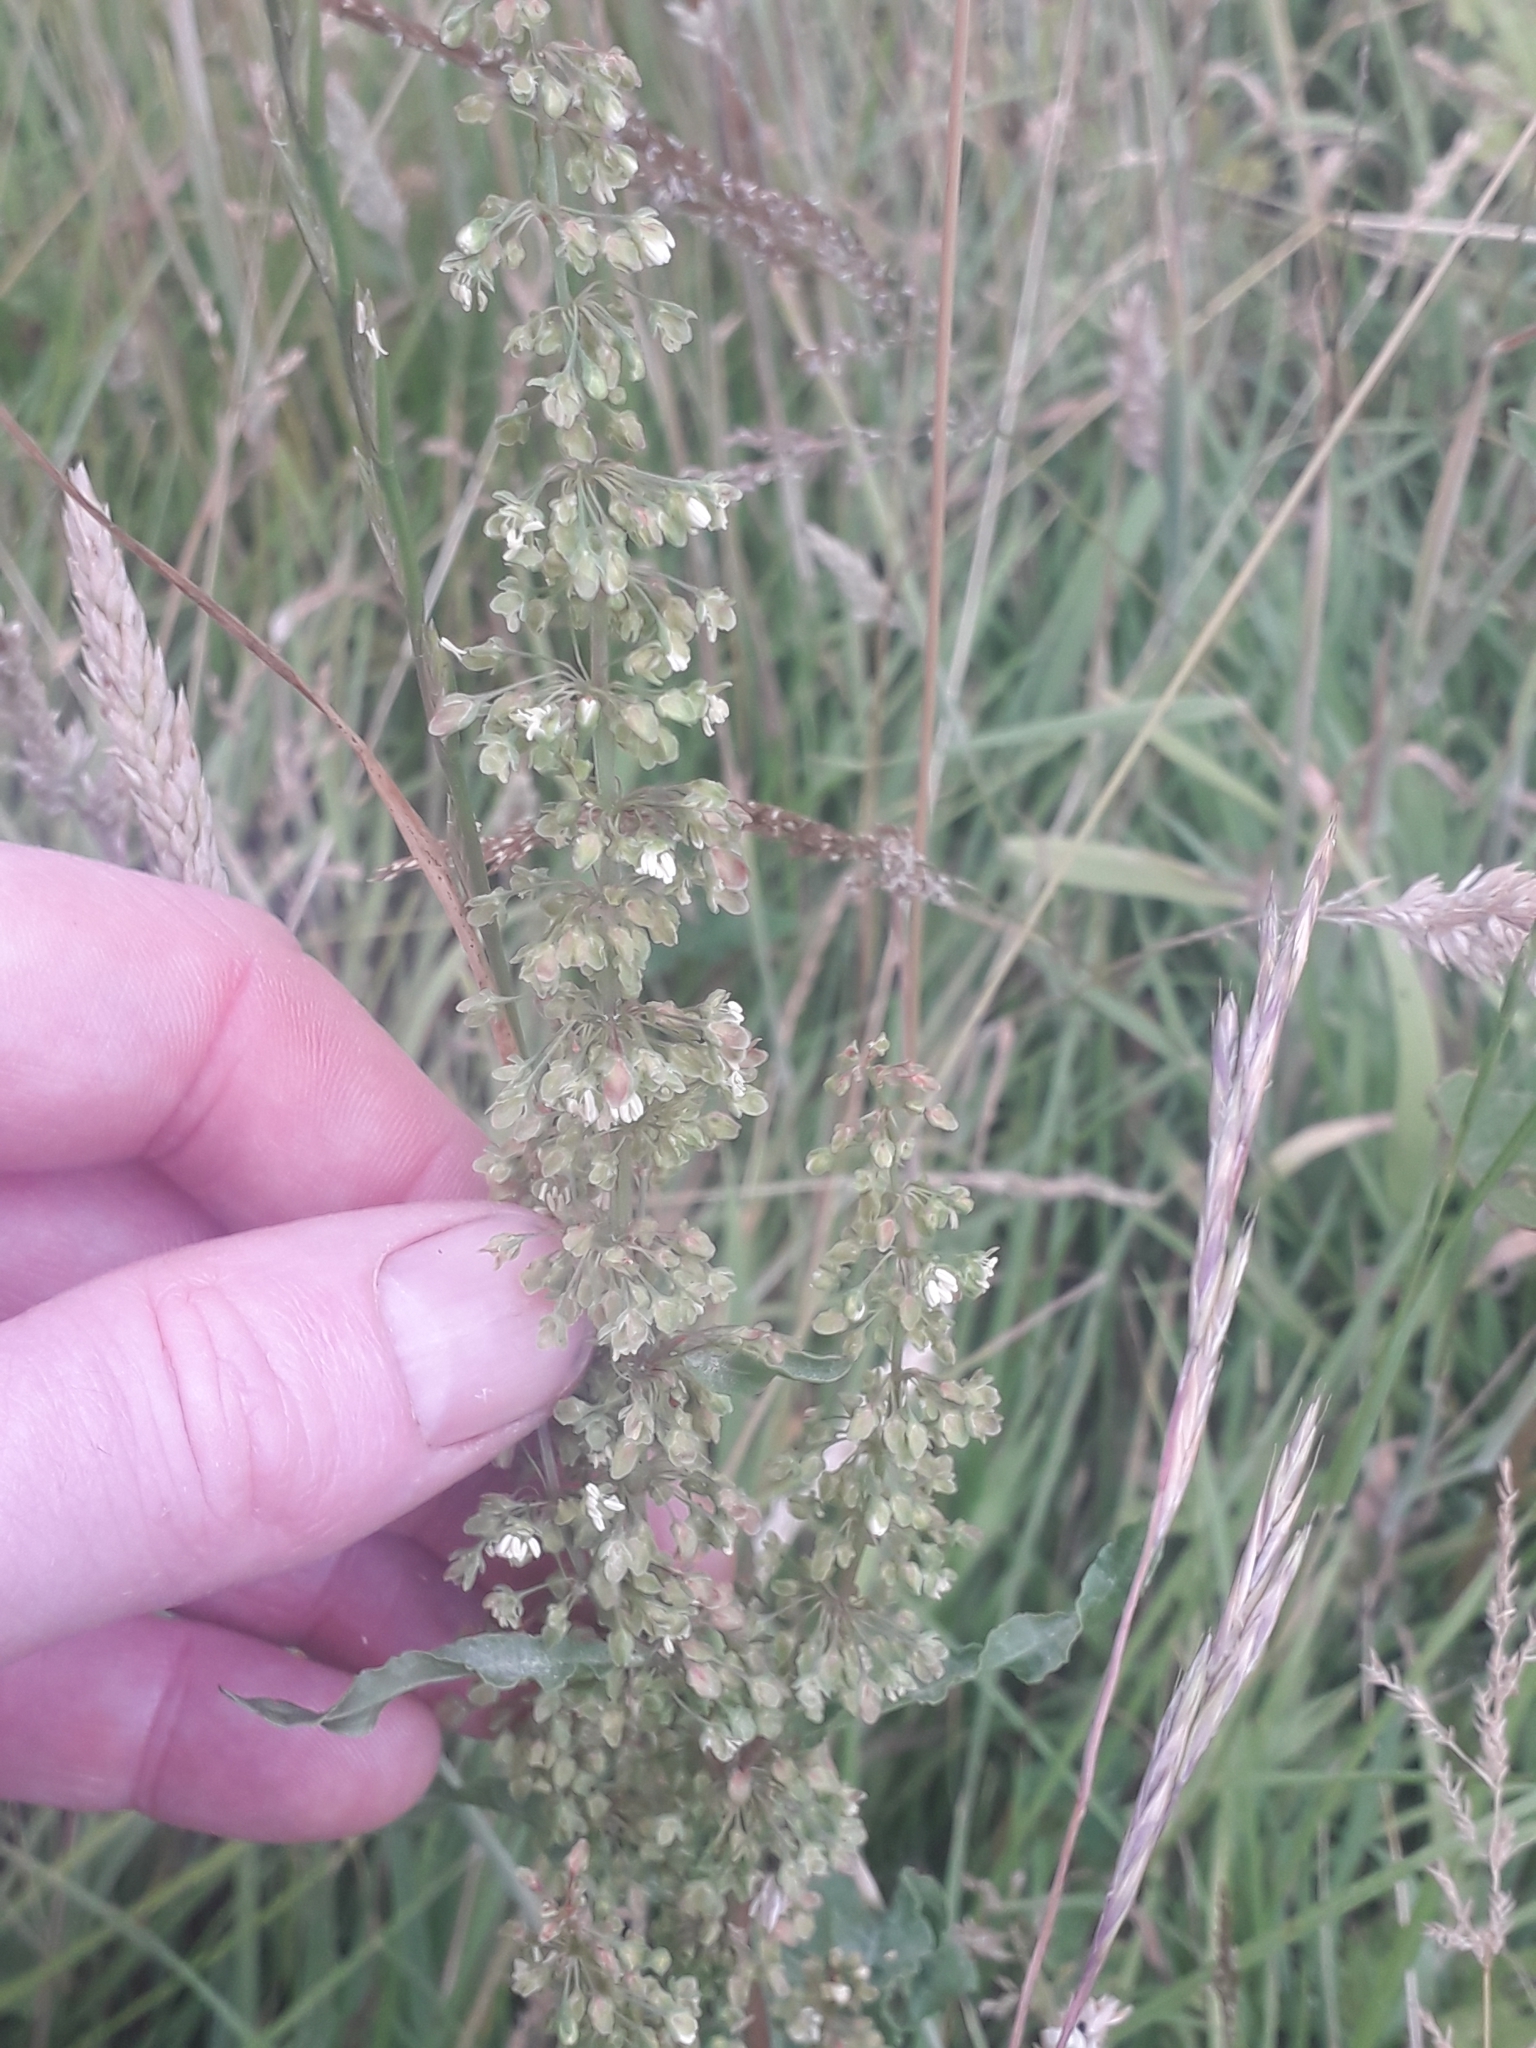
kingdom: Plantae
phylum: Tracheophyta
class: Magnoliopsida
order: Caryophyllales
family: Polygonaceae
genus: Rumex
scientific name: Rumex crispus
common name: Curled dock
